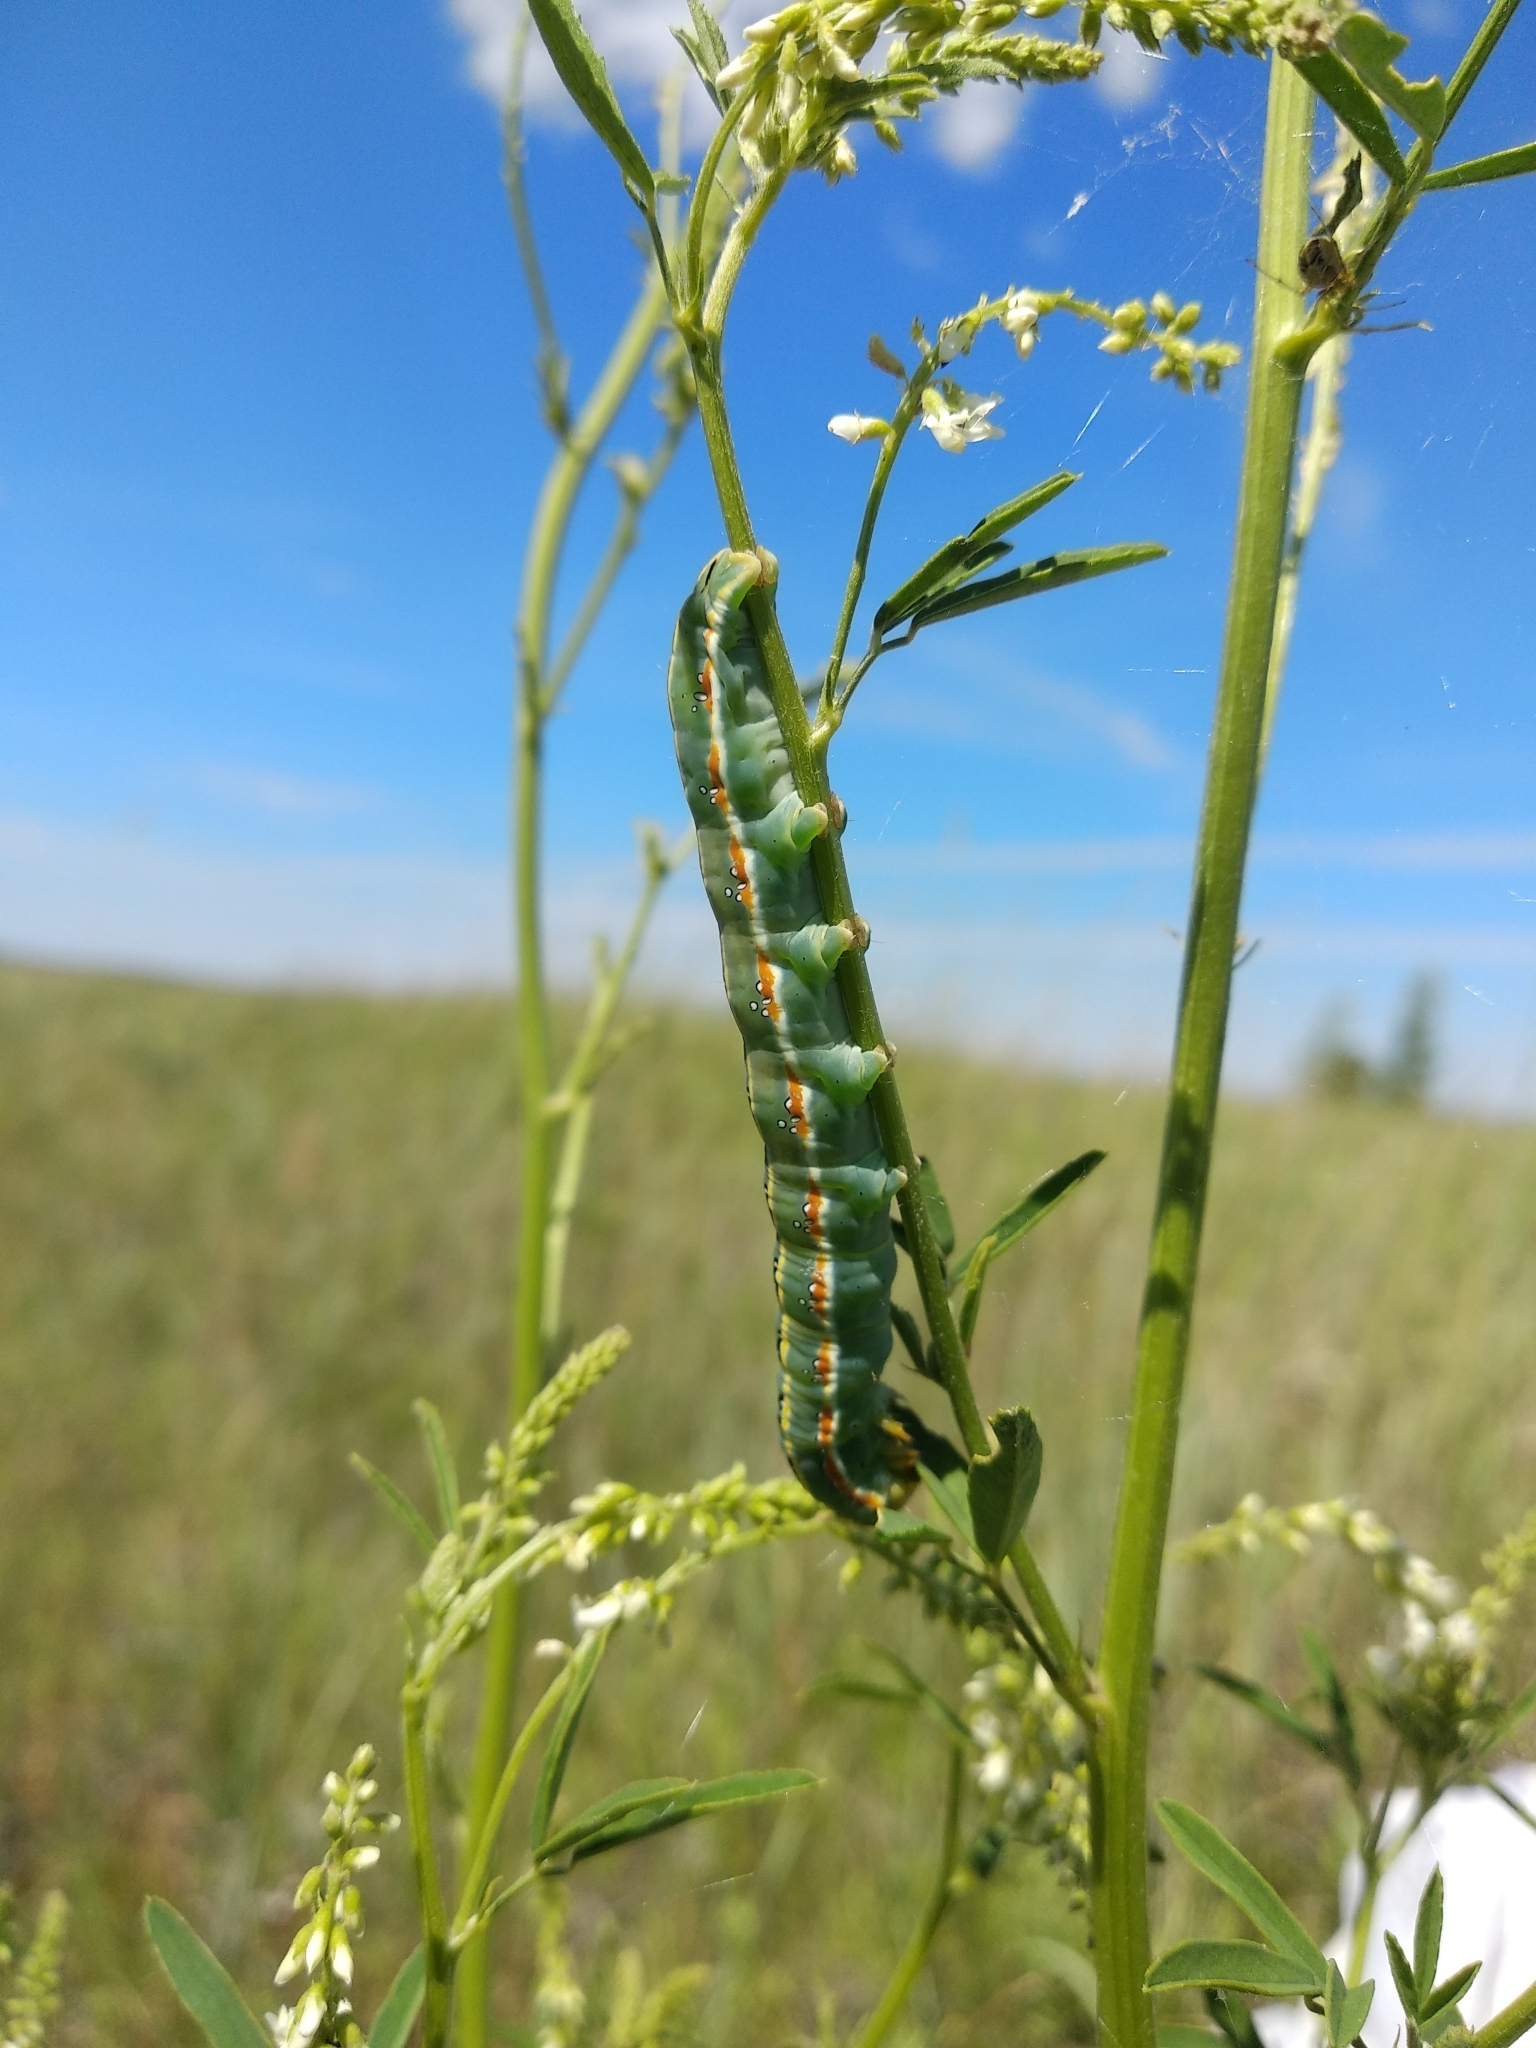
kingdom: Animalia
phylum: Arthropoda
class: Insecta
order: Lepidoptera
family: Noctuidae
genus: Xylena
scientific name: Xylena exsoleta
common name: Sword-grass
